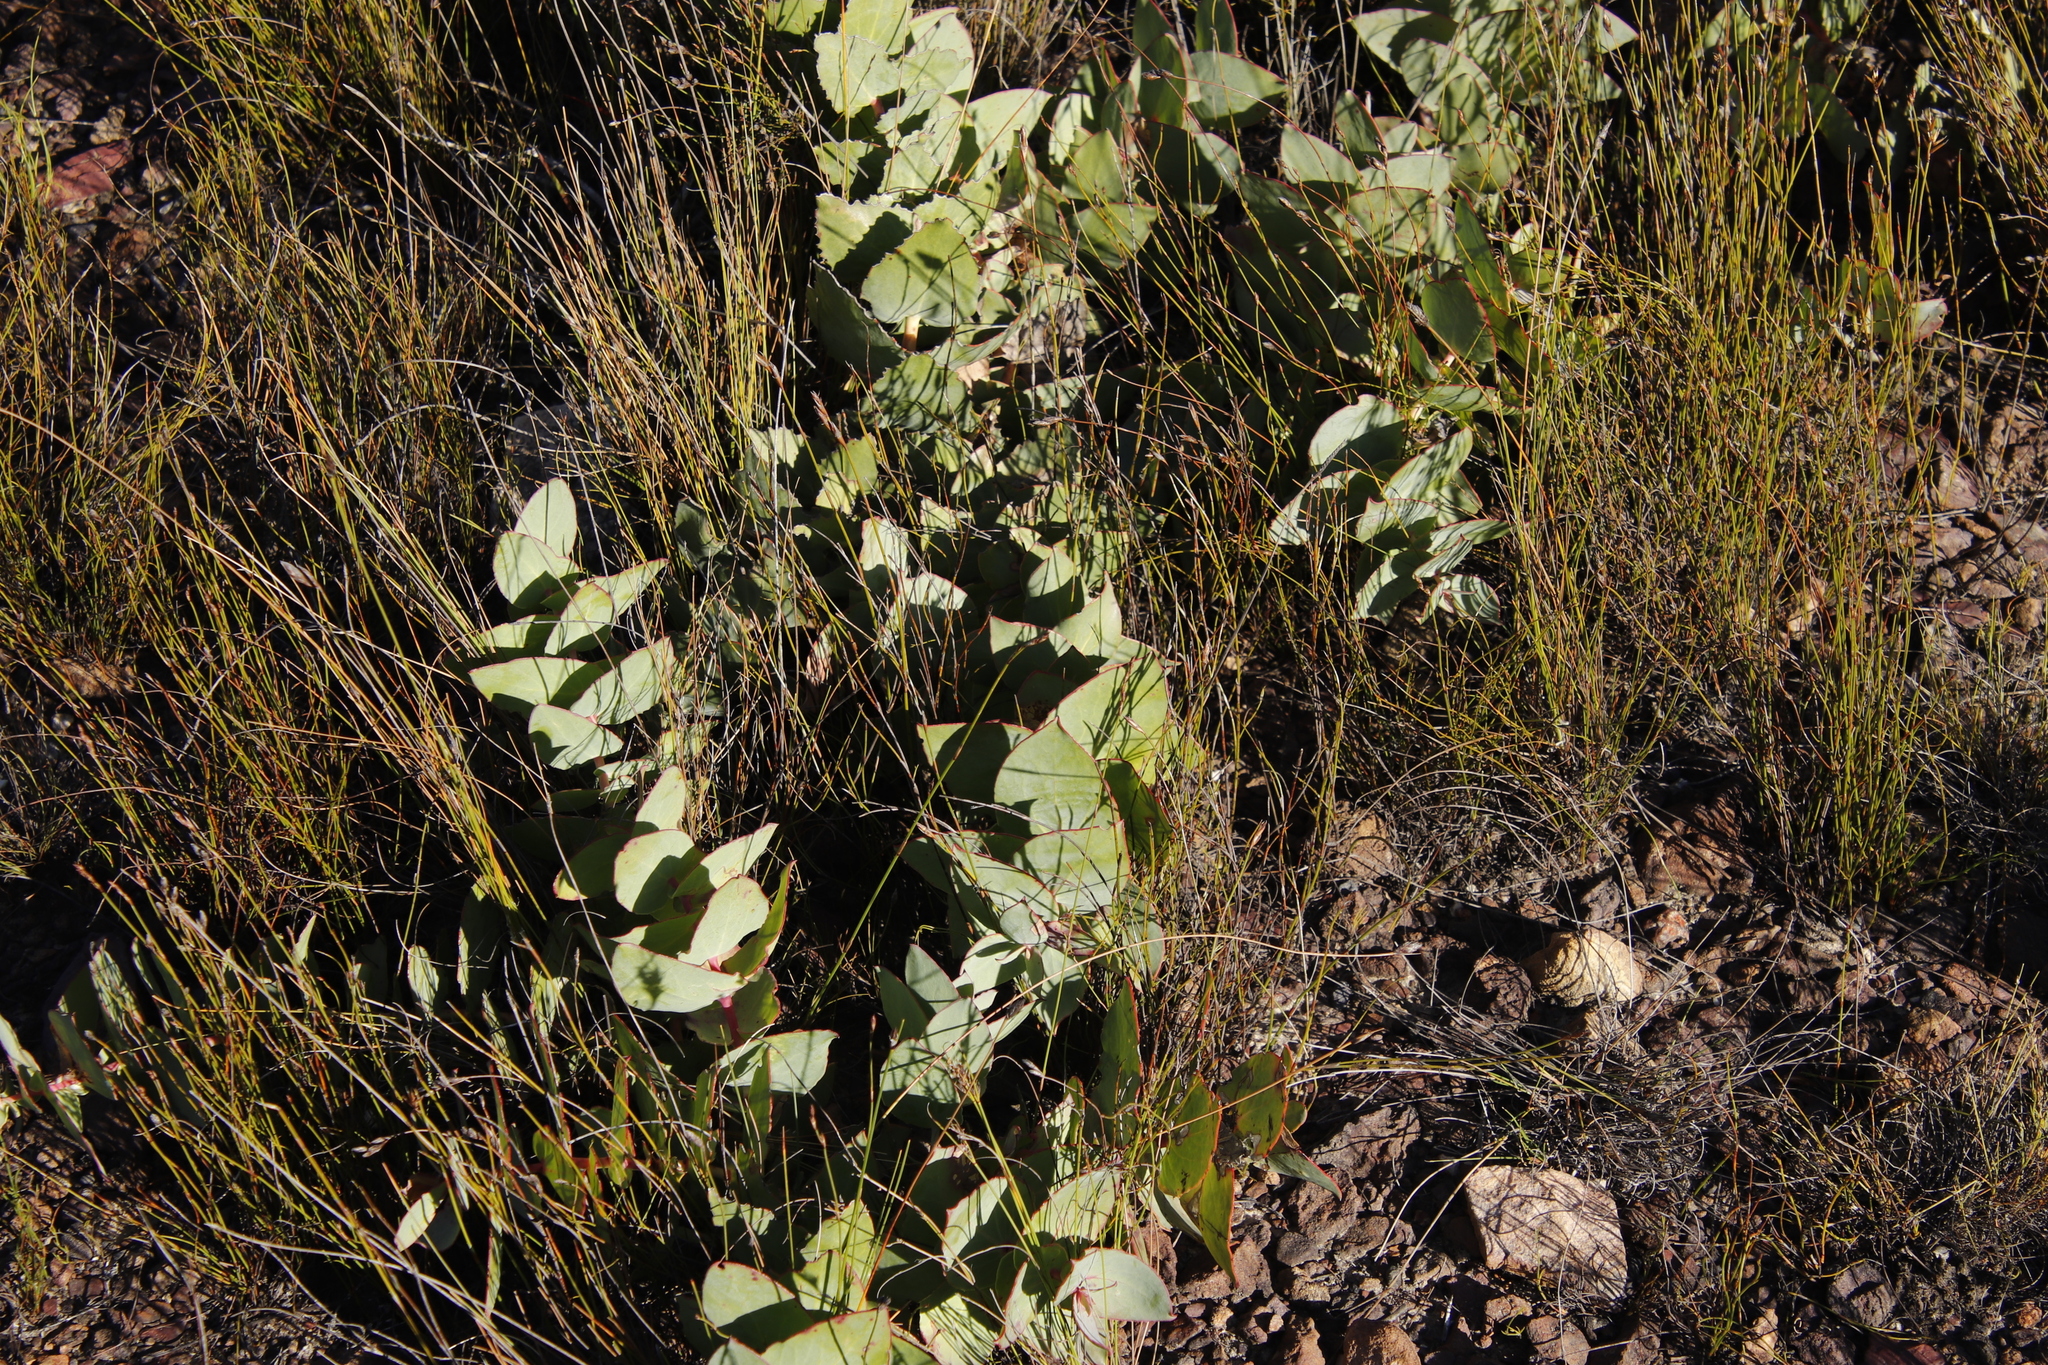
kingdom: Plantae
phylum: Tracheophyta
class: Magnoliopsida
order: Proteales
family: Proteaceae
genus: Protea
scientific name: Protea amplexicaulis
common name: Clasping-leaf sugarbush
